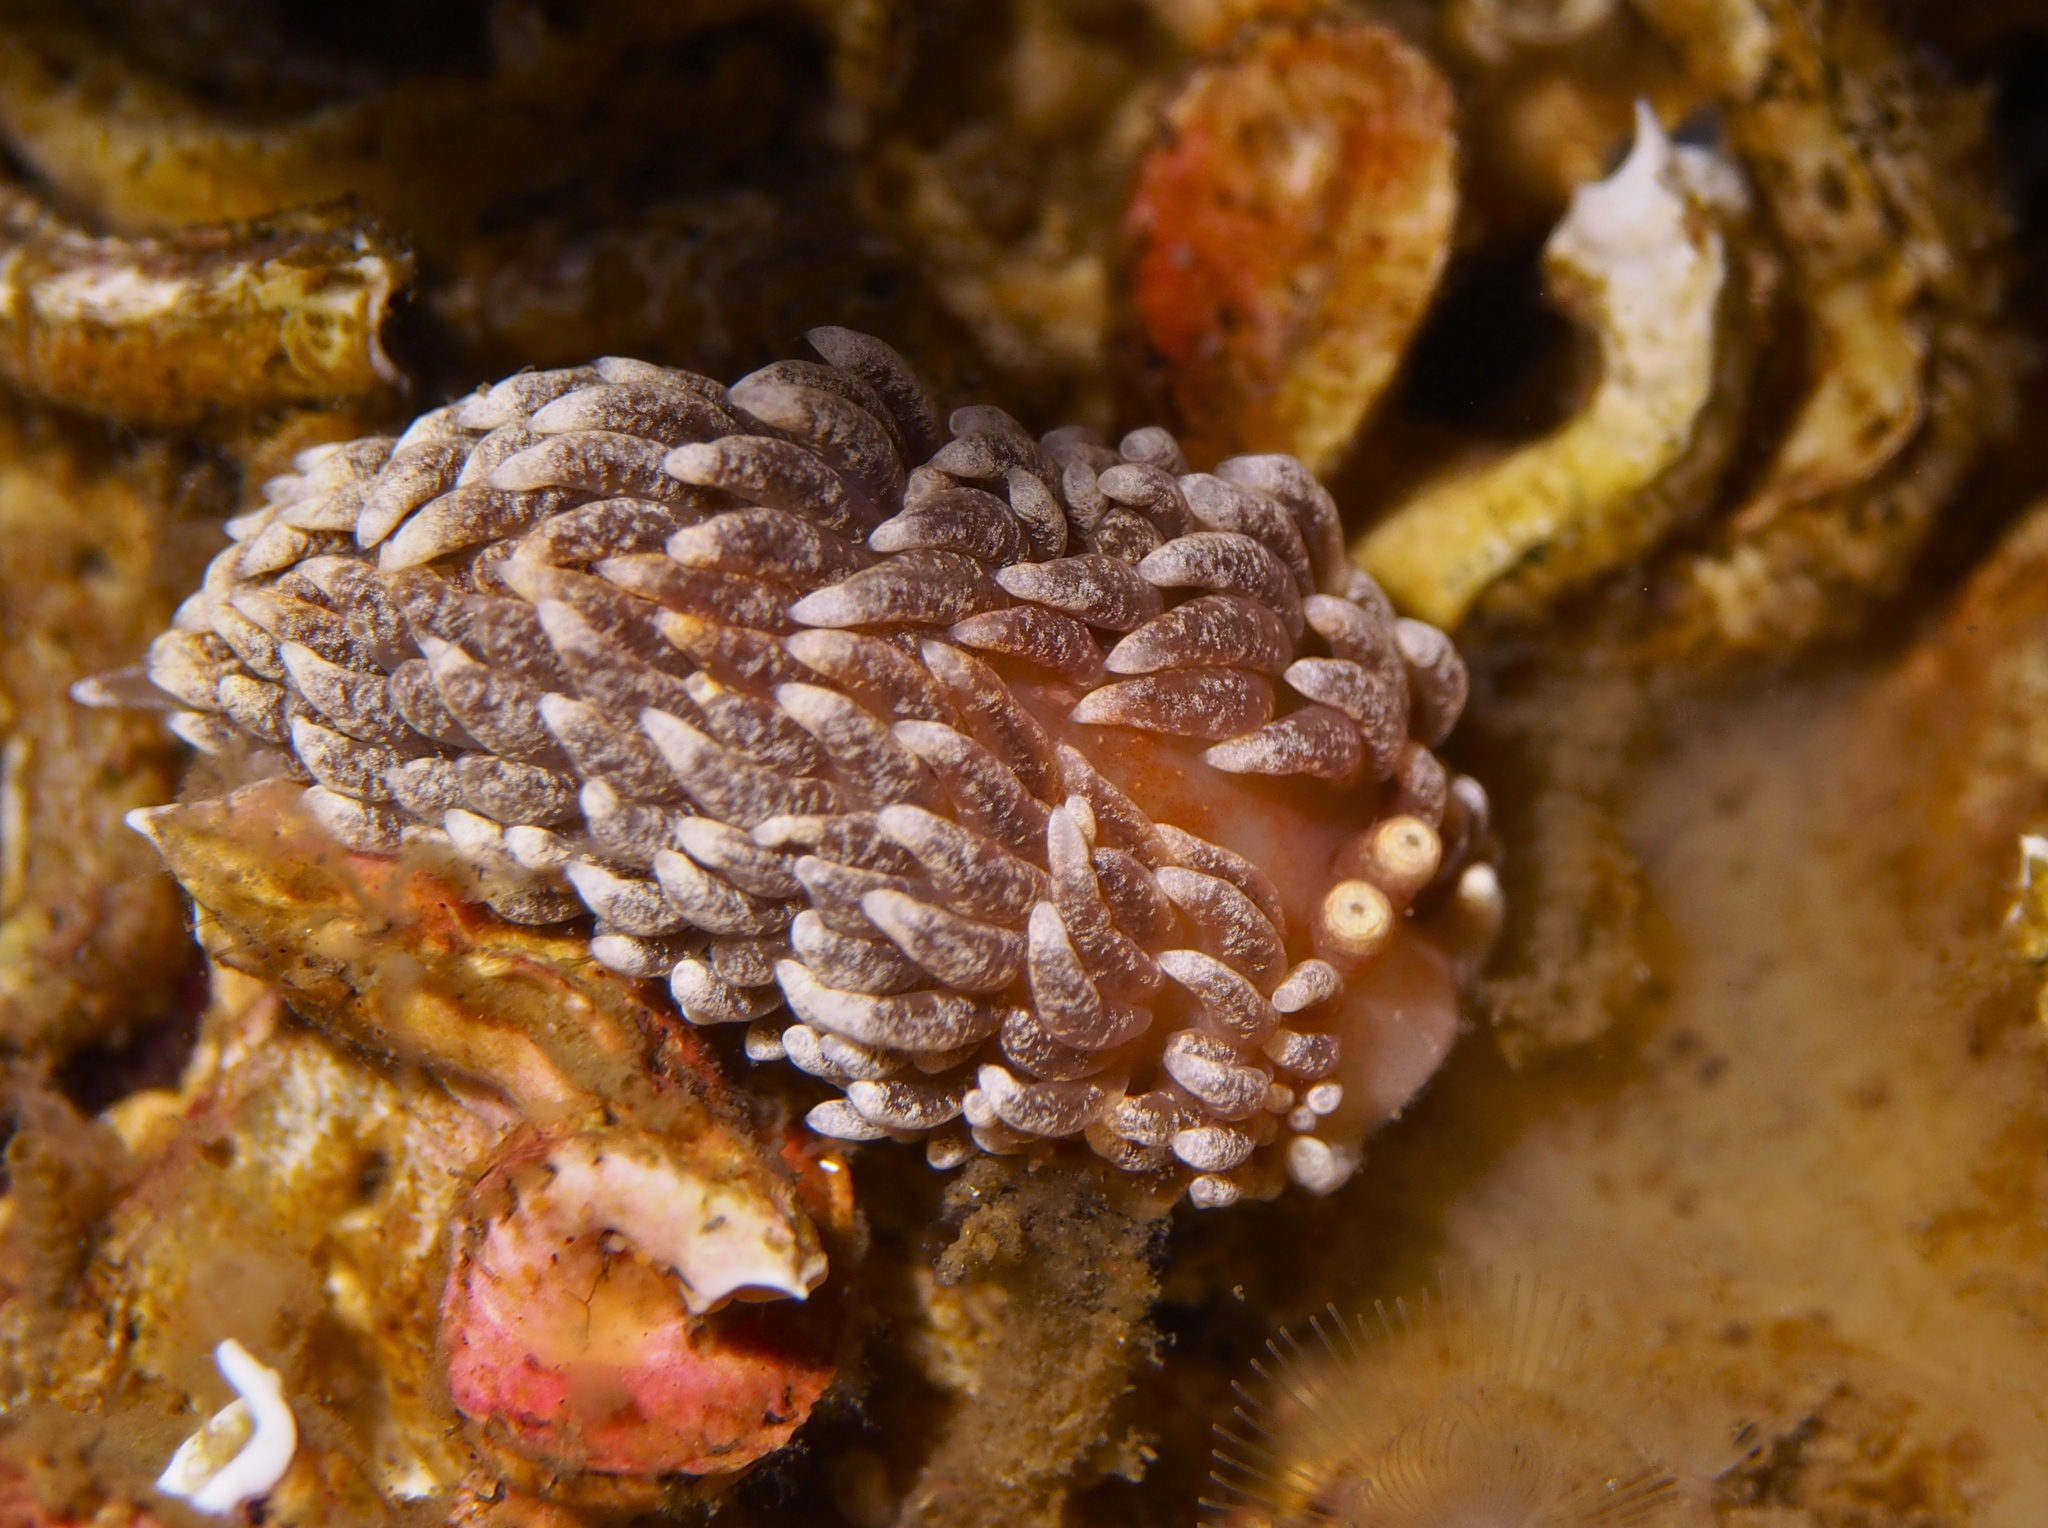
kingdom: Animalia
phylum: Mollusca
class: Gastropoda
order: Nudibranchia
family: Aeolidiidae
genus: Aeolidiella
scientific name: Aeolidiella glauca
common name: Orange-brown aeolid
